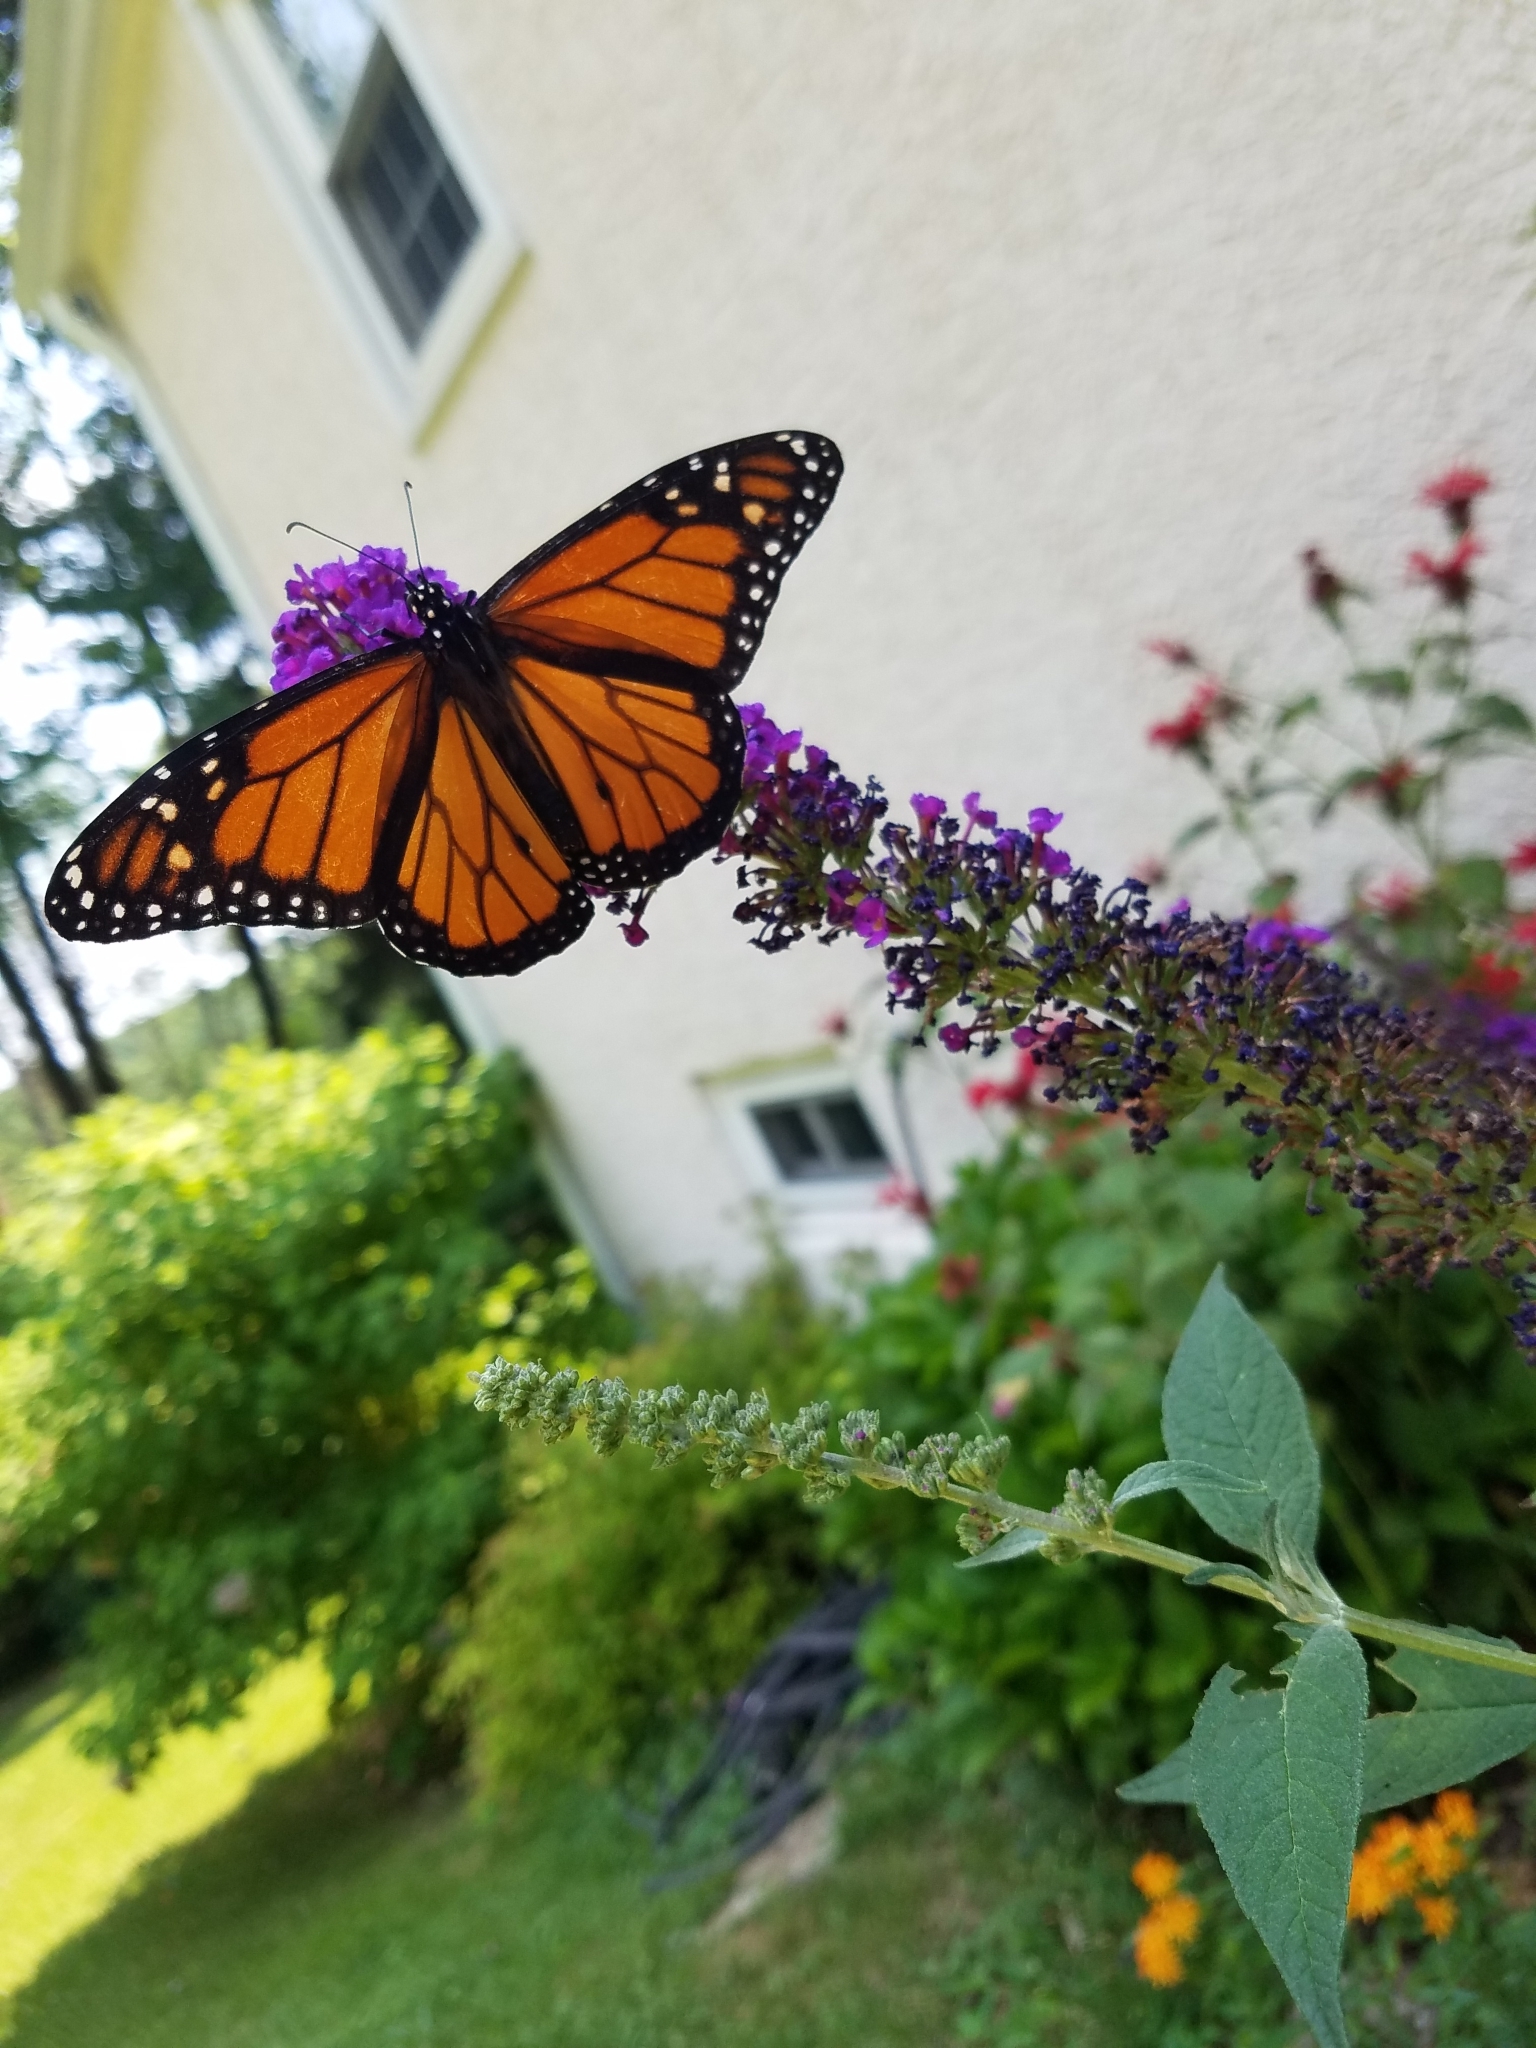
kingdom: Animalia
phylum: Arthropoda
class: Insecta
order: Lepidoptera
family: Nymphalidae
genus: Danaus
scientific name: Danaus plexippus
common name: Monarch
